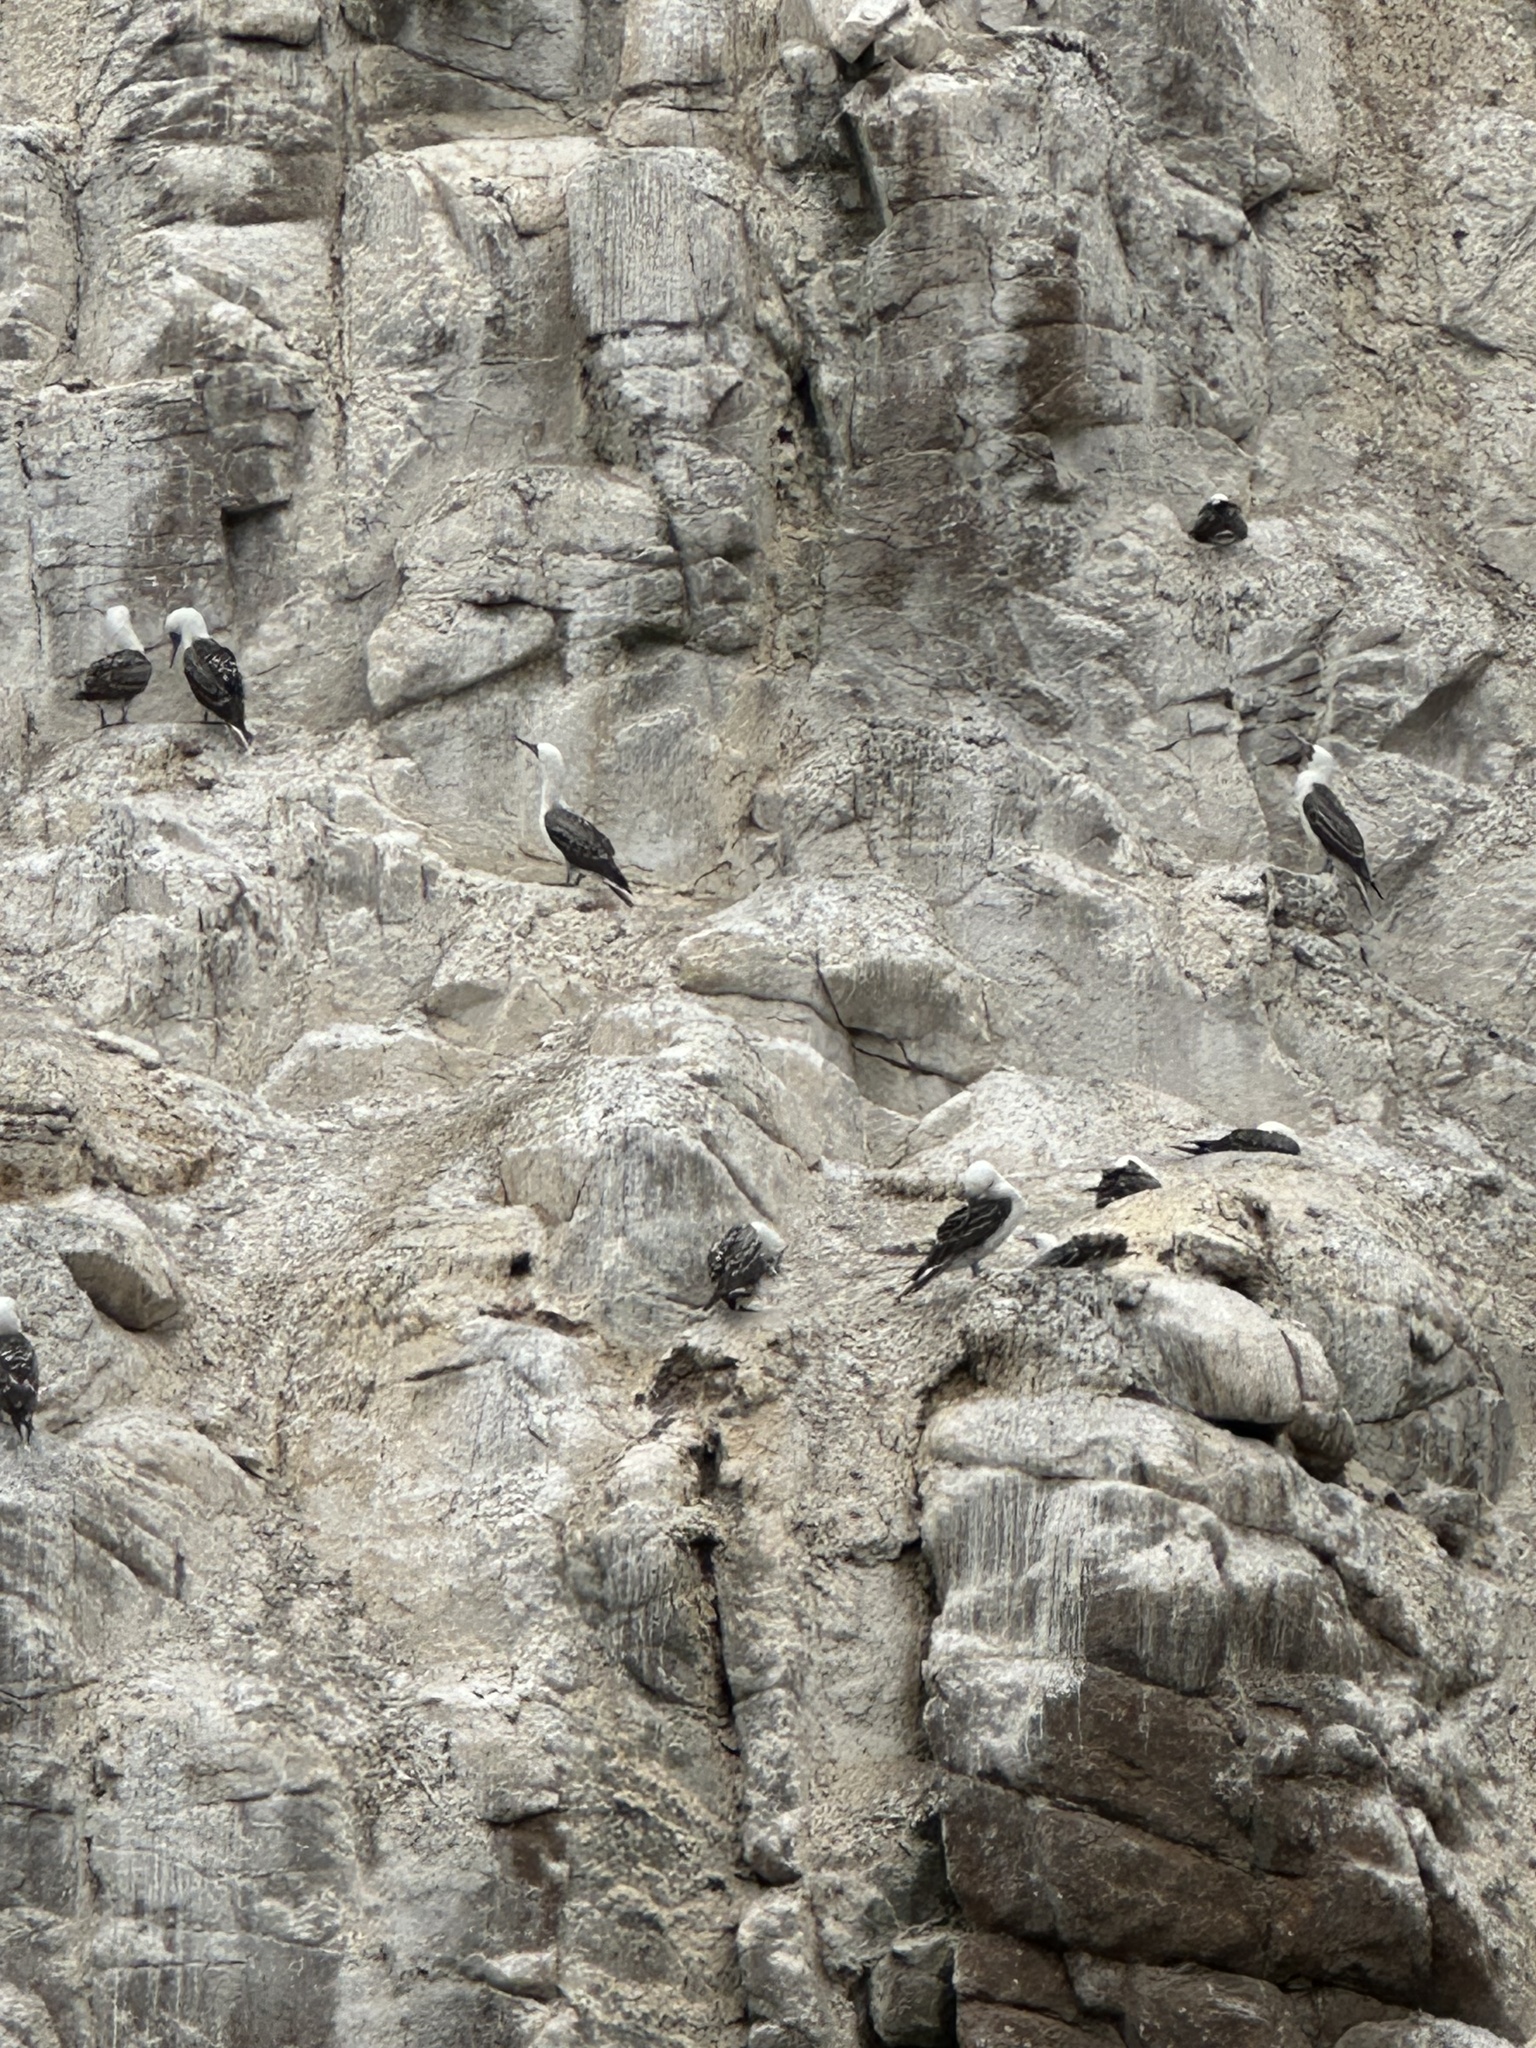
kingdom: Animalia
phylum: Chordata
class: Aves
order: Suliformes
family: Sulidae
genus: Sula
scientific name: Sula variegata
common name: Peruvian booby
